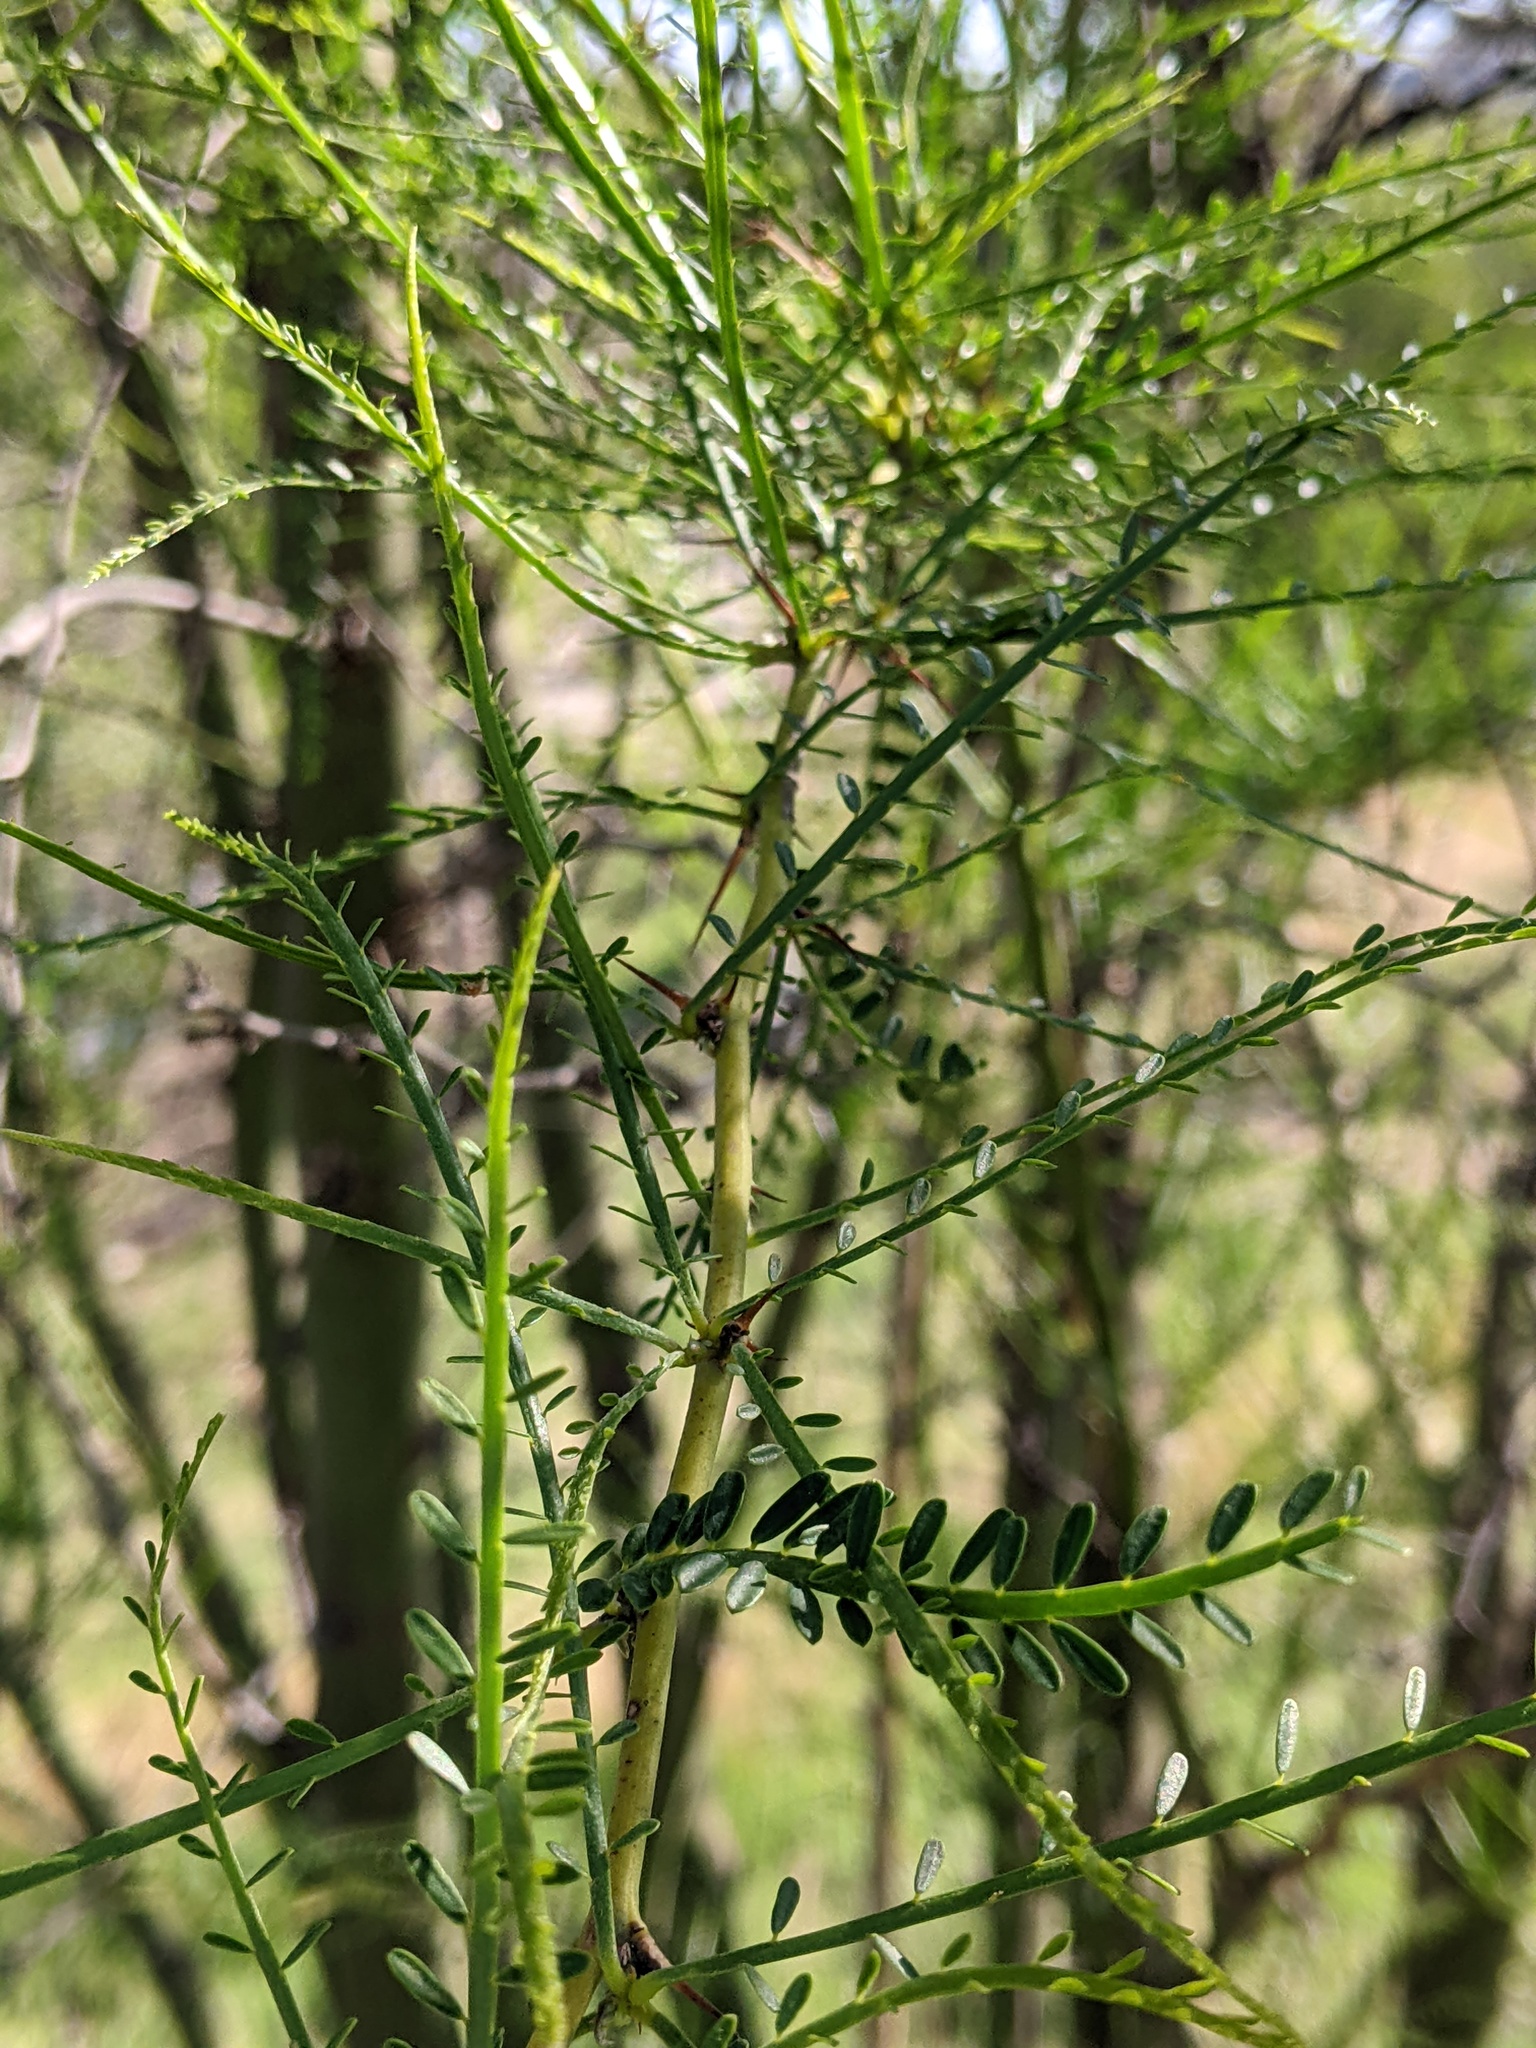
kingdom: Plantae
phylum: Tracheophyta
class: Magnoliopsida
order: Fabales
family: Fabaceae
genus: Parkinsonia
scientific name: Parkinsonia aculeata
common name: Jerusalem thorn
